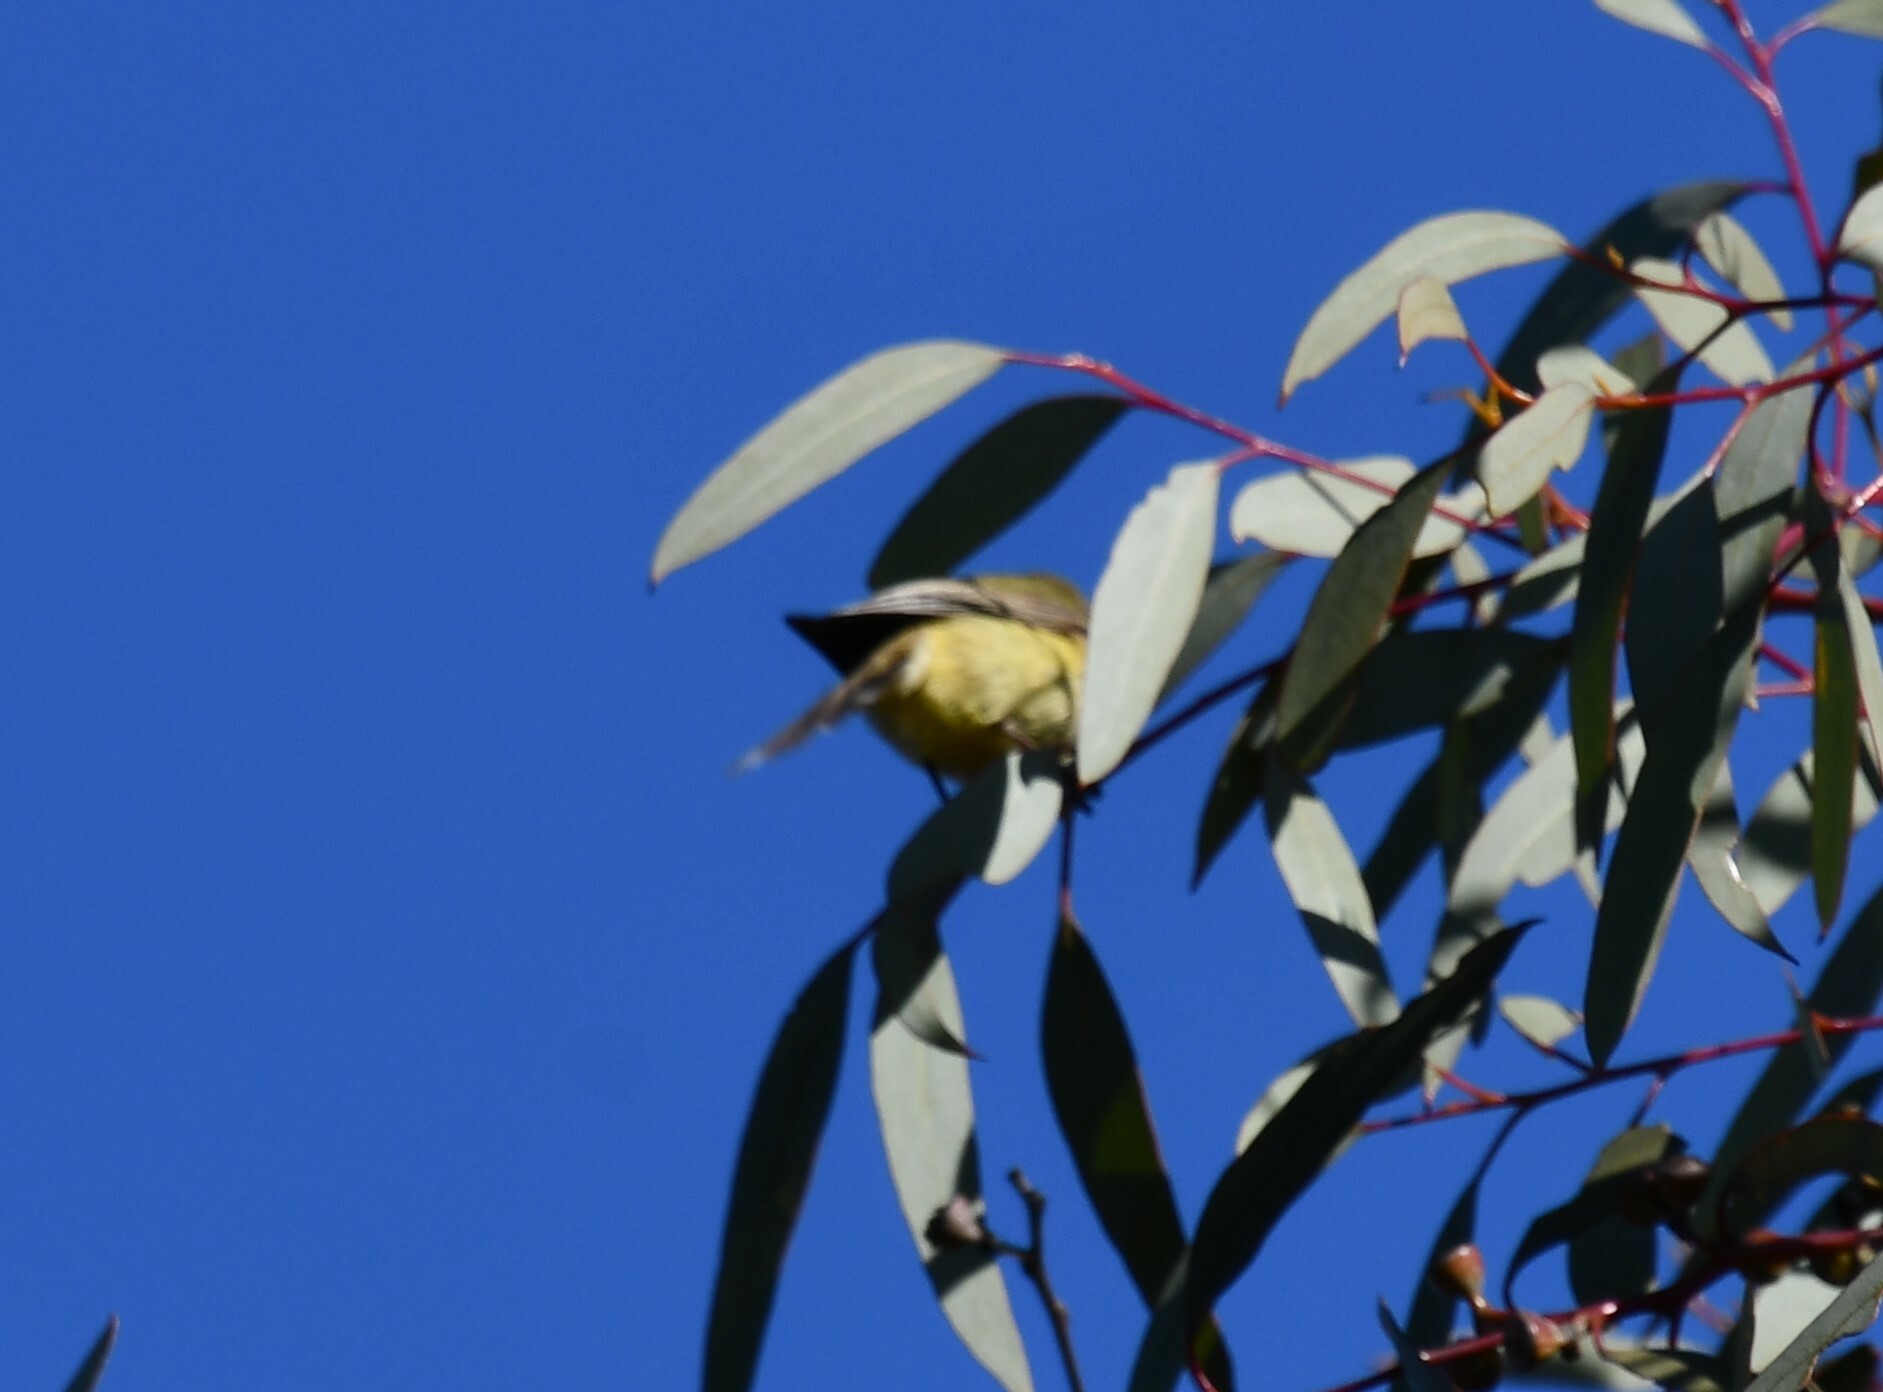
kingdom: Animalia
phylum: Chordata
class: Aves
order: Passeriformes
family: Pardalotidae
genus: Pardalotus
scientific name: Pardalotus striatus
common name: Striated pardalote
